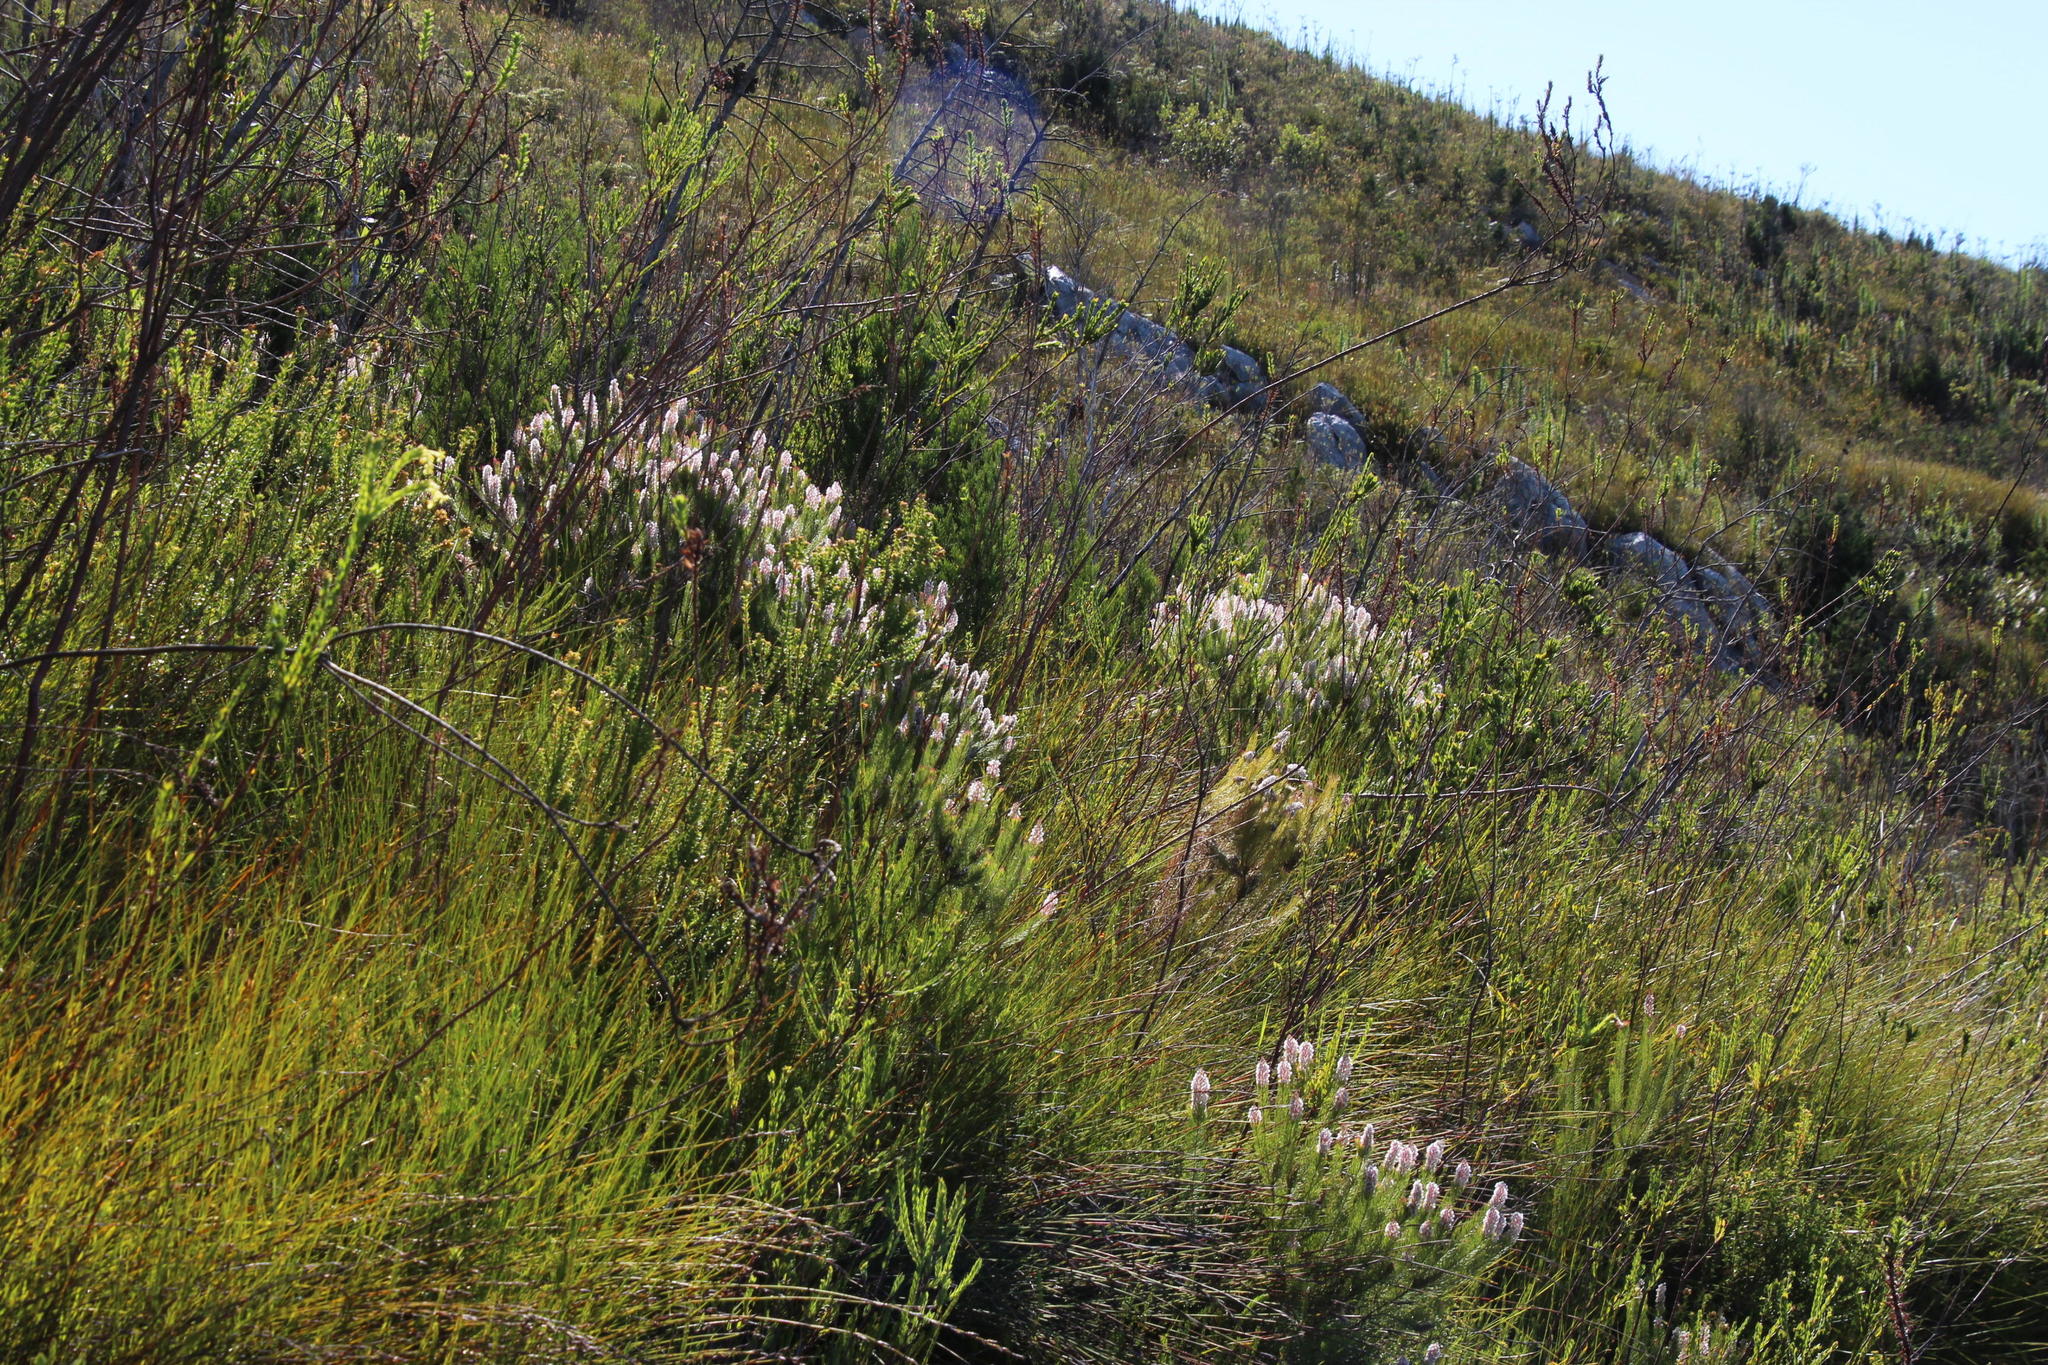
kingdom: Plantae
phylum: Tracheophyta
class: Magnoliopsida
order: Proteales
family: Proteaceae
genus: Spatalla
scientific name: Spatalla parilis
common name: Spike spoon
